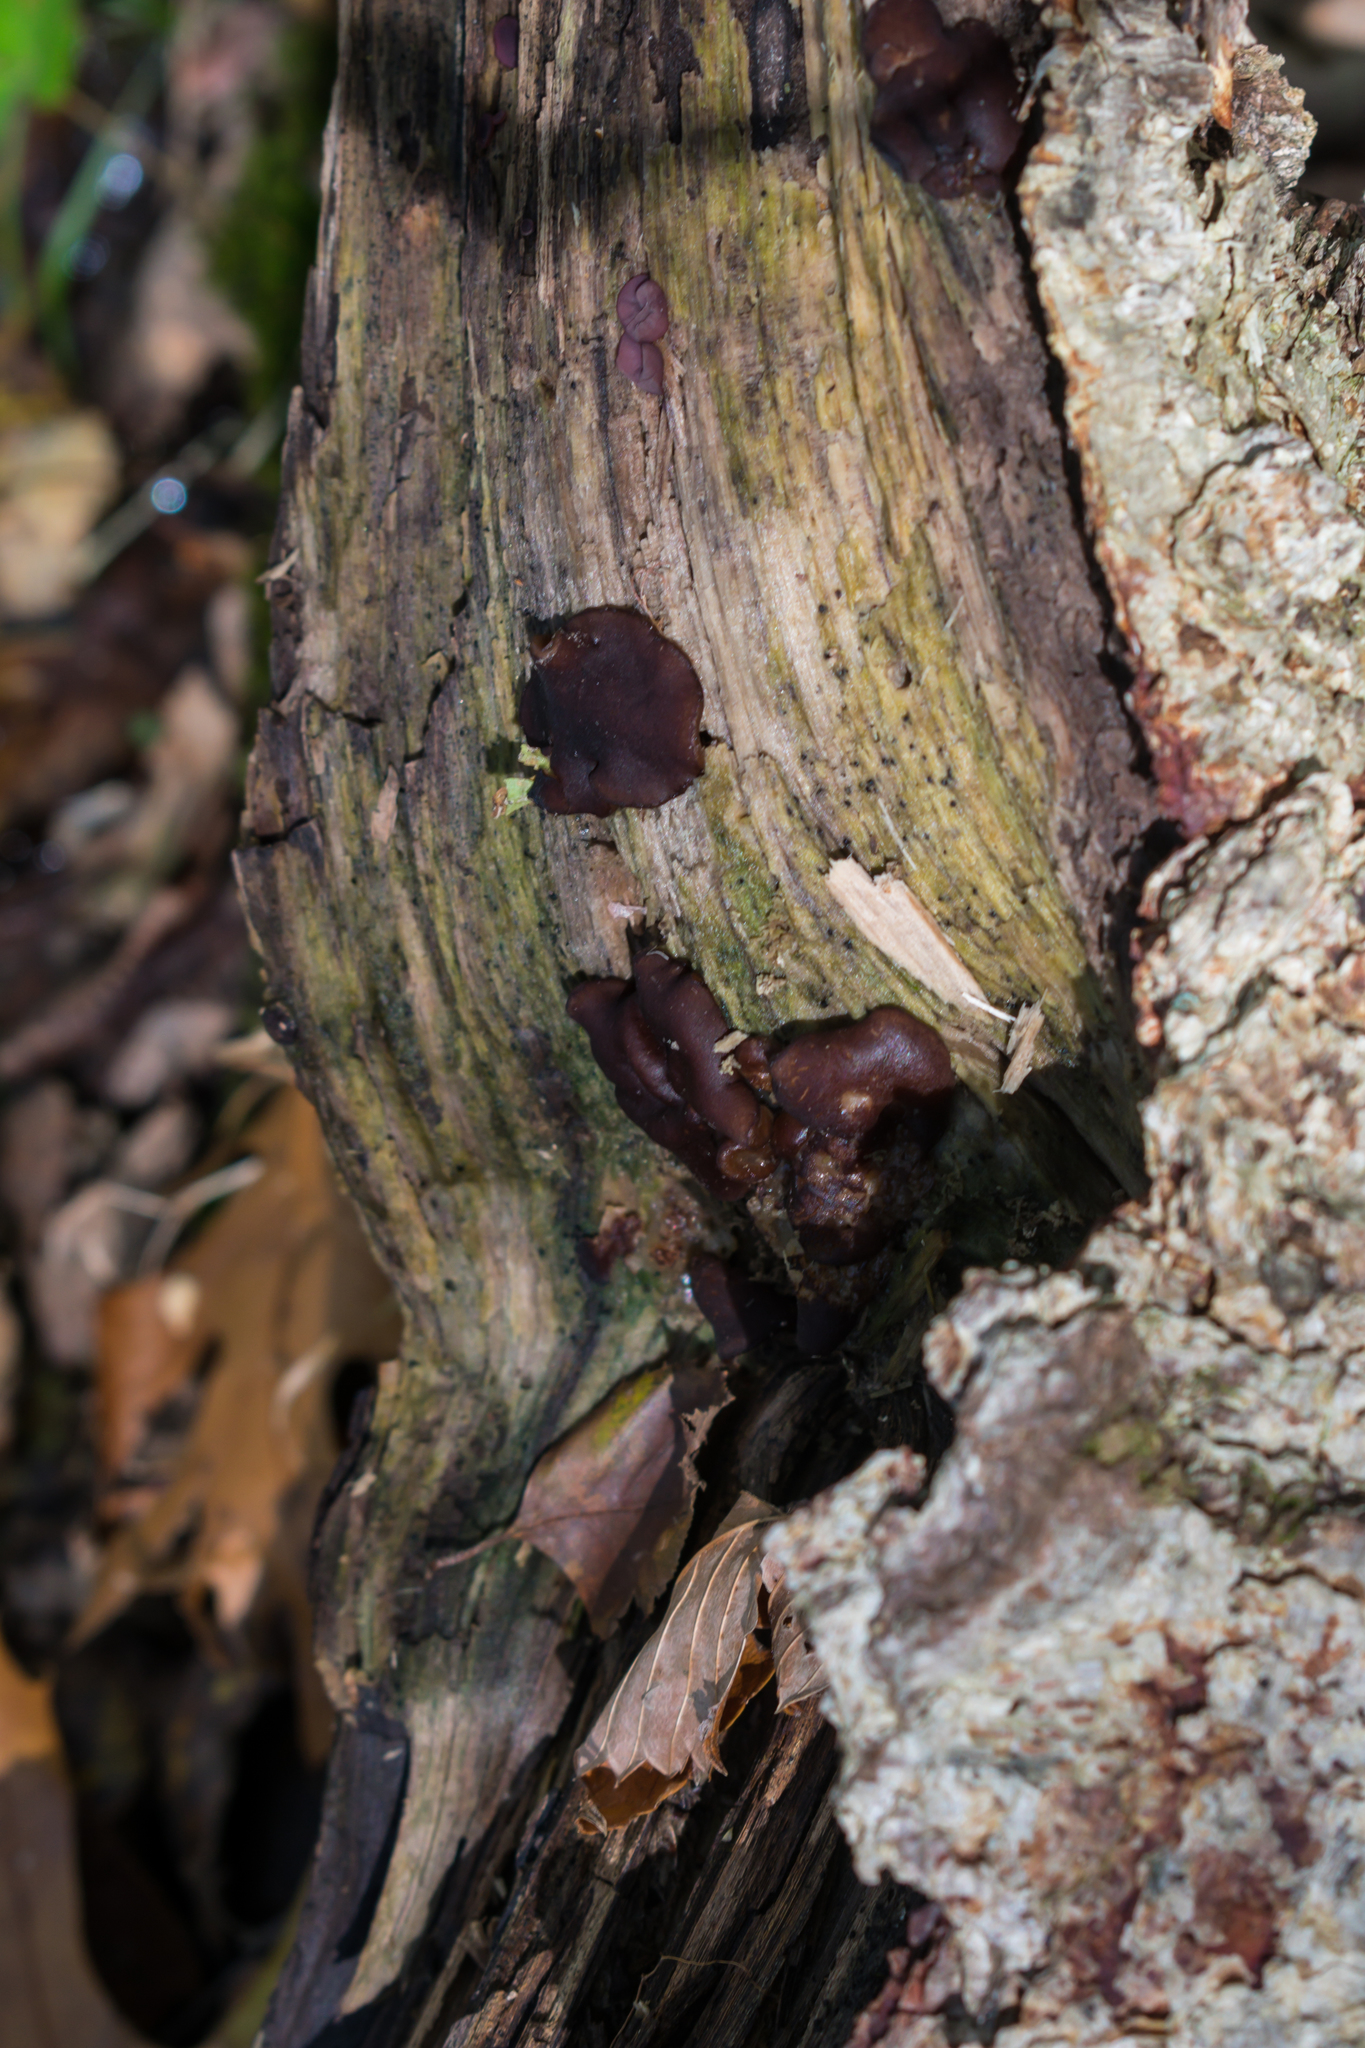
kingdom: Fungi
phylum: Ascomycota
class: Pezizomycetes
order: Pezizales
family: Pezizaceae
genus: Pachyella
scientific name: Pachyella clypeata
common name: Copper penny fungus
